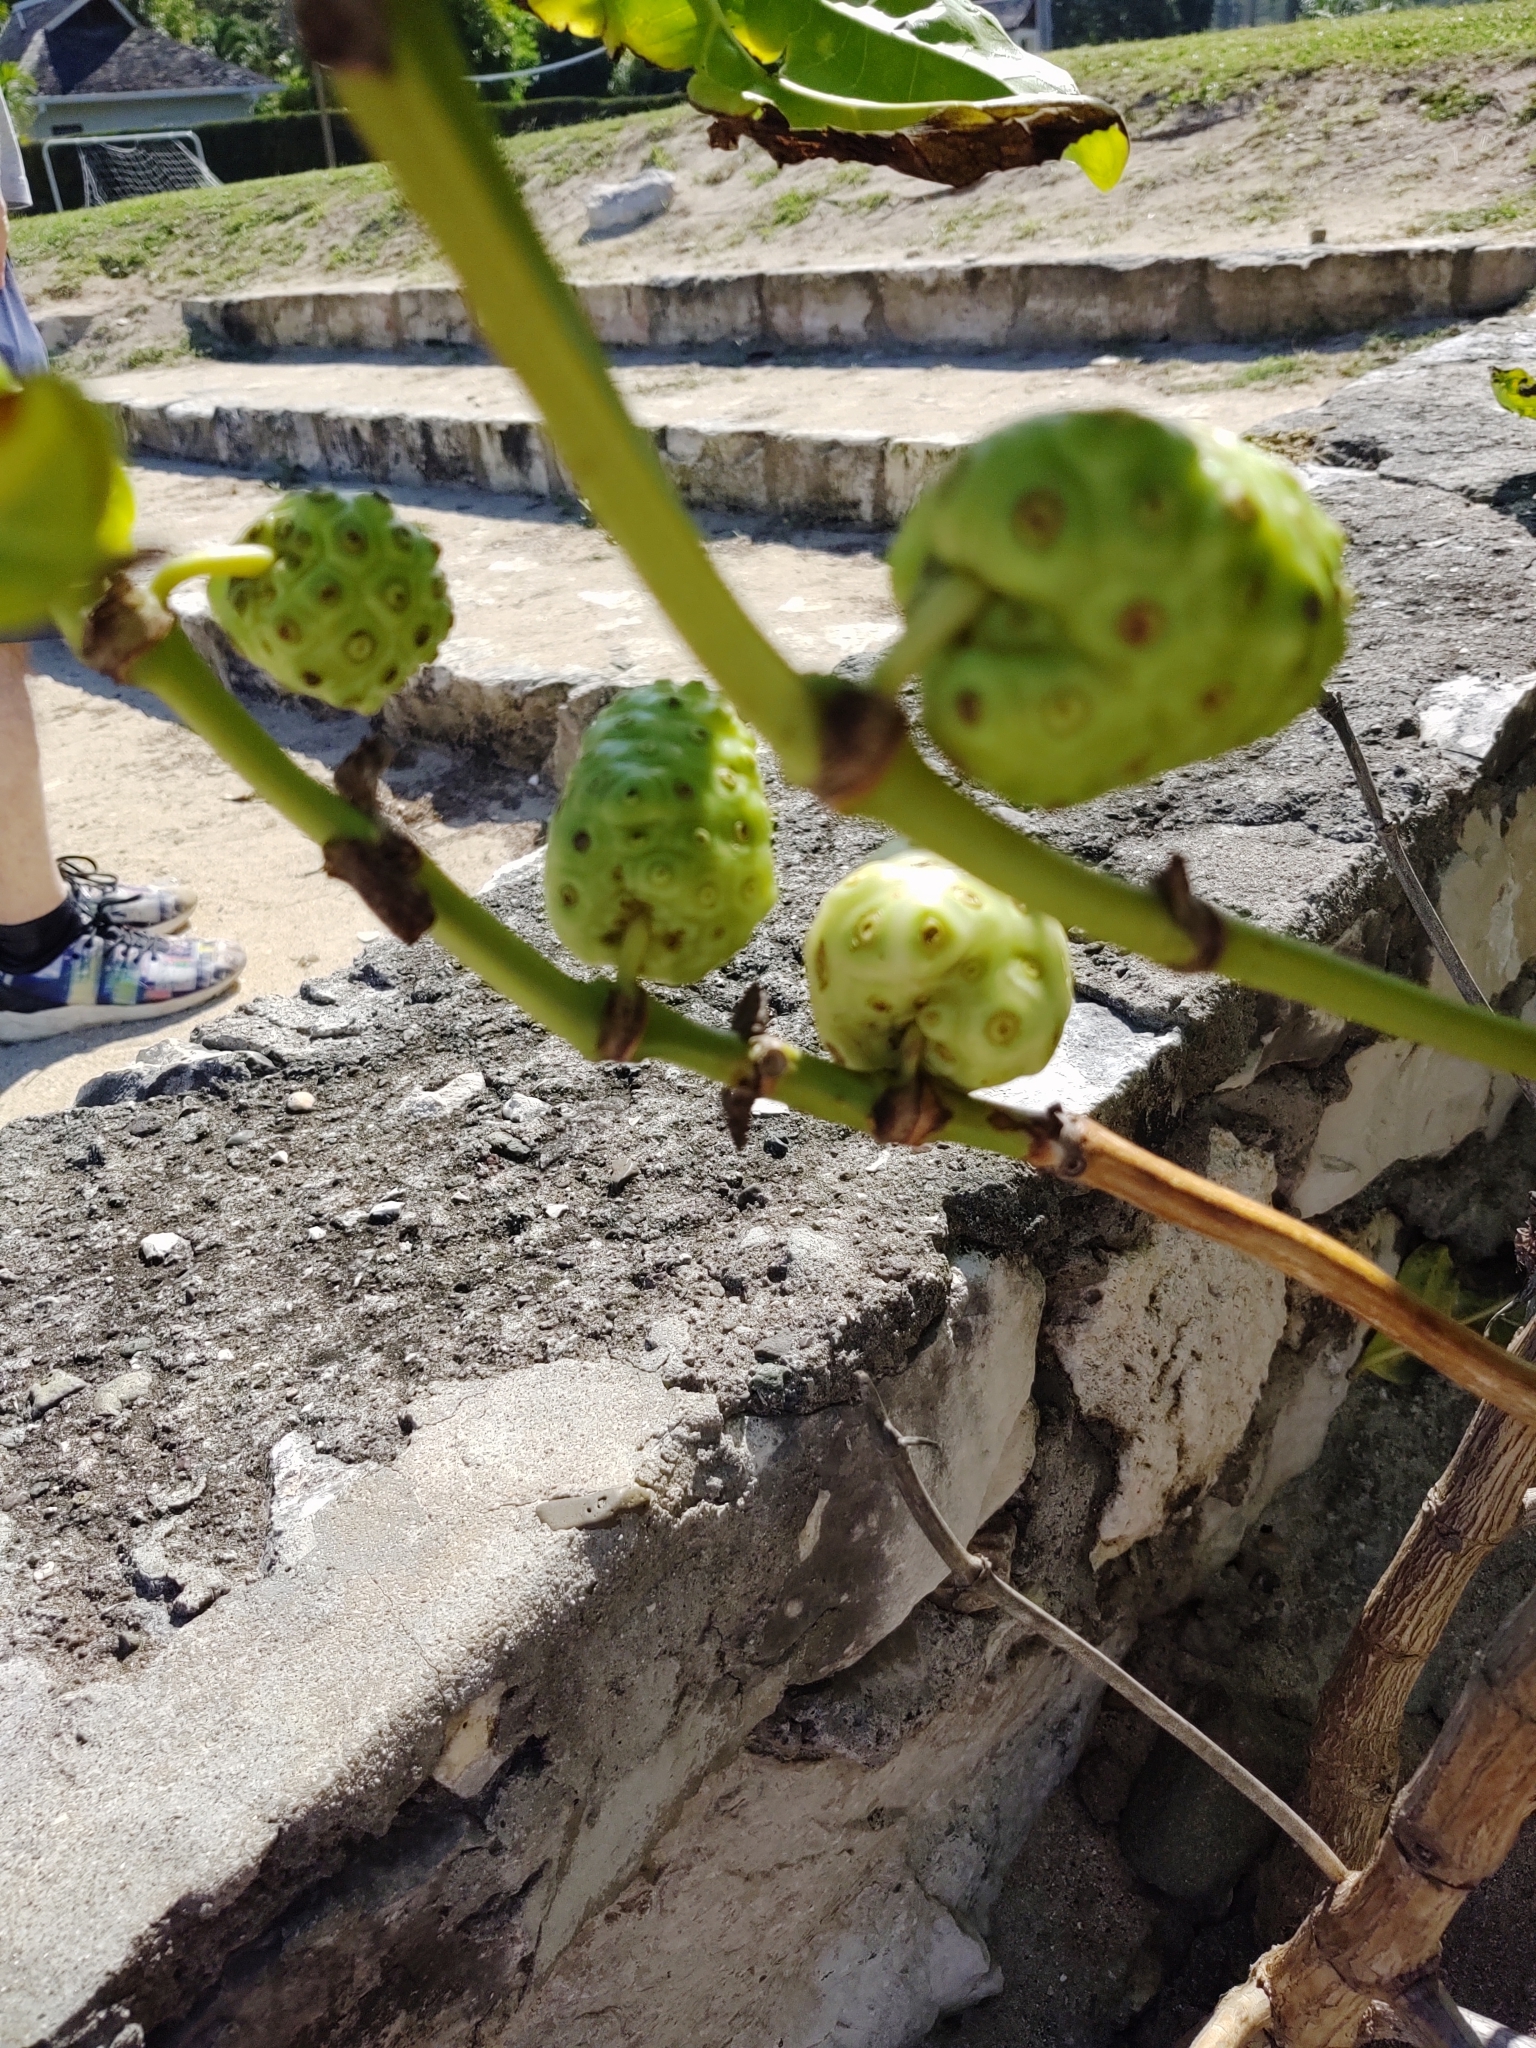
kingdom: Plantae
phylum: Tracheophyta
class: Magnoliopsida
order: Gentianales
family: Rubiaceae
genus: Morinda
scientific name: Morinda citrifolia
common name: Indian-mulberry
